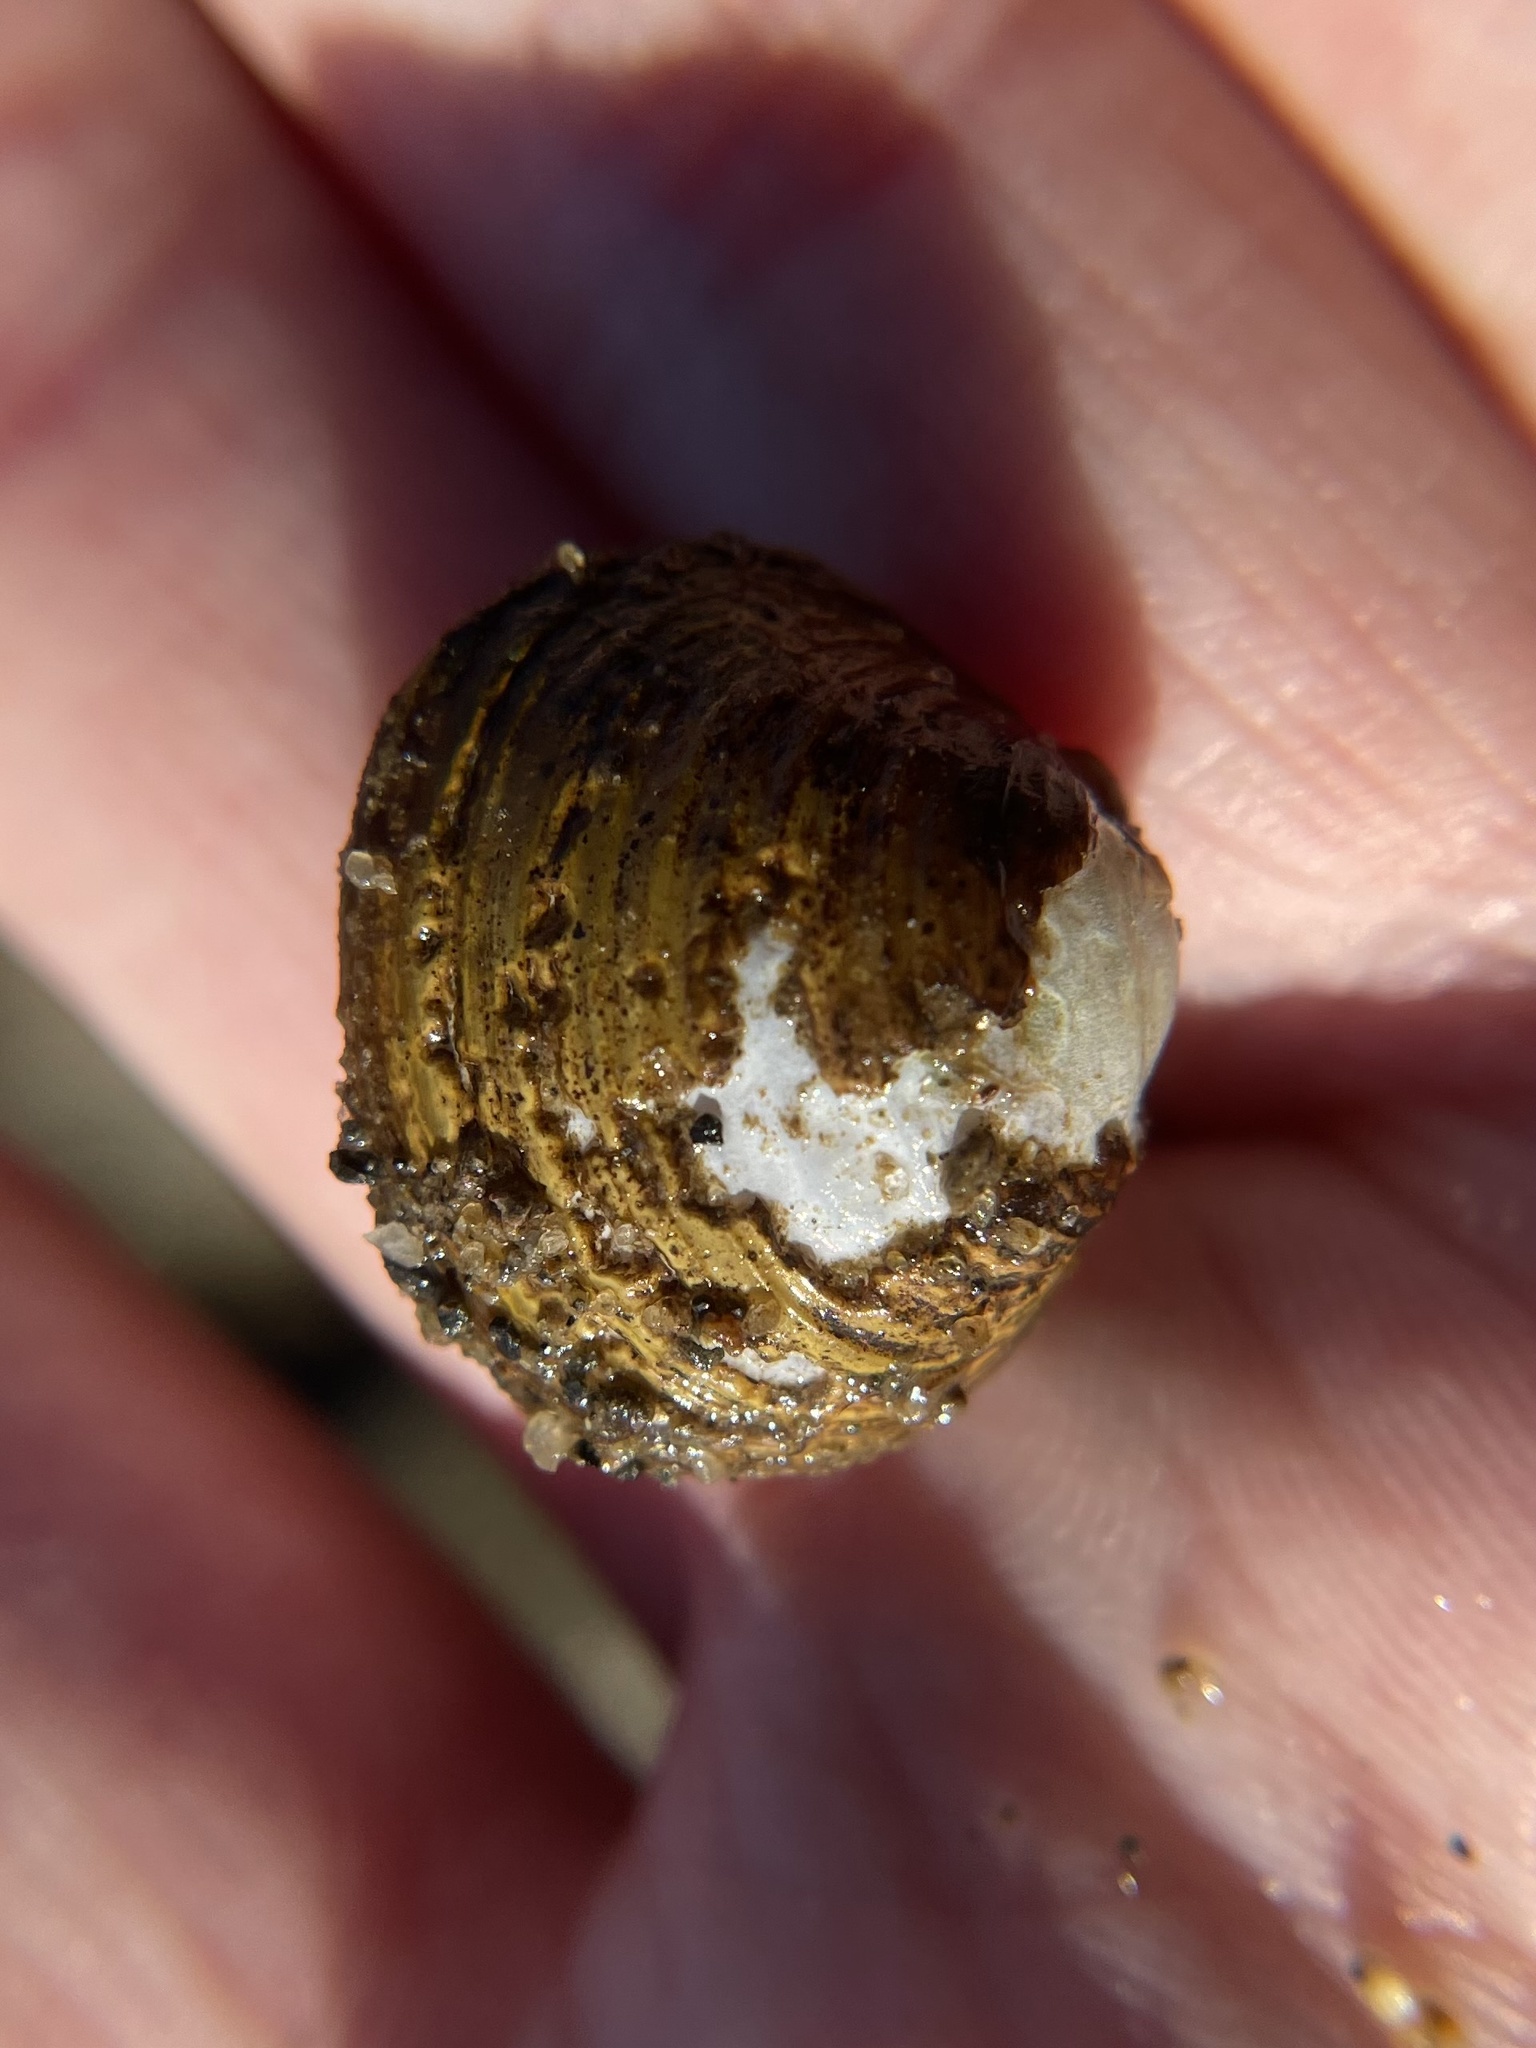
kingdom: Animalia
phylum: Mollusca
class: Bivalvia
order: Venerida
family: Cyrenidae
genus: Corbicula
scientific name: Corbicula fluminea
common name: Asian clam
